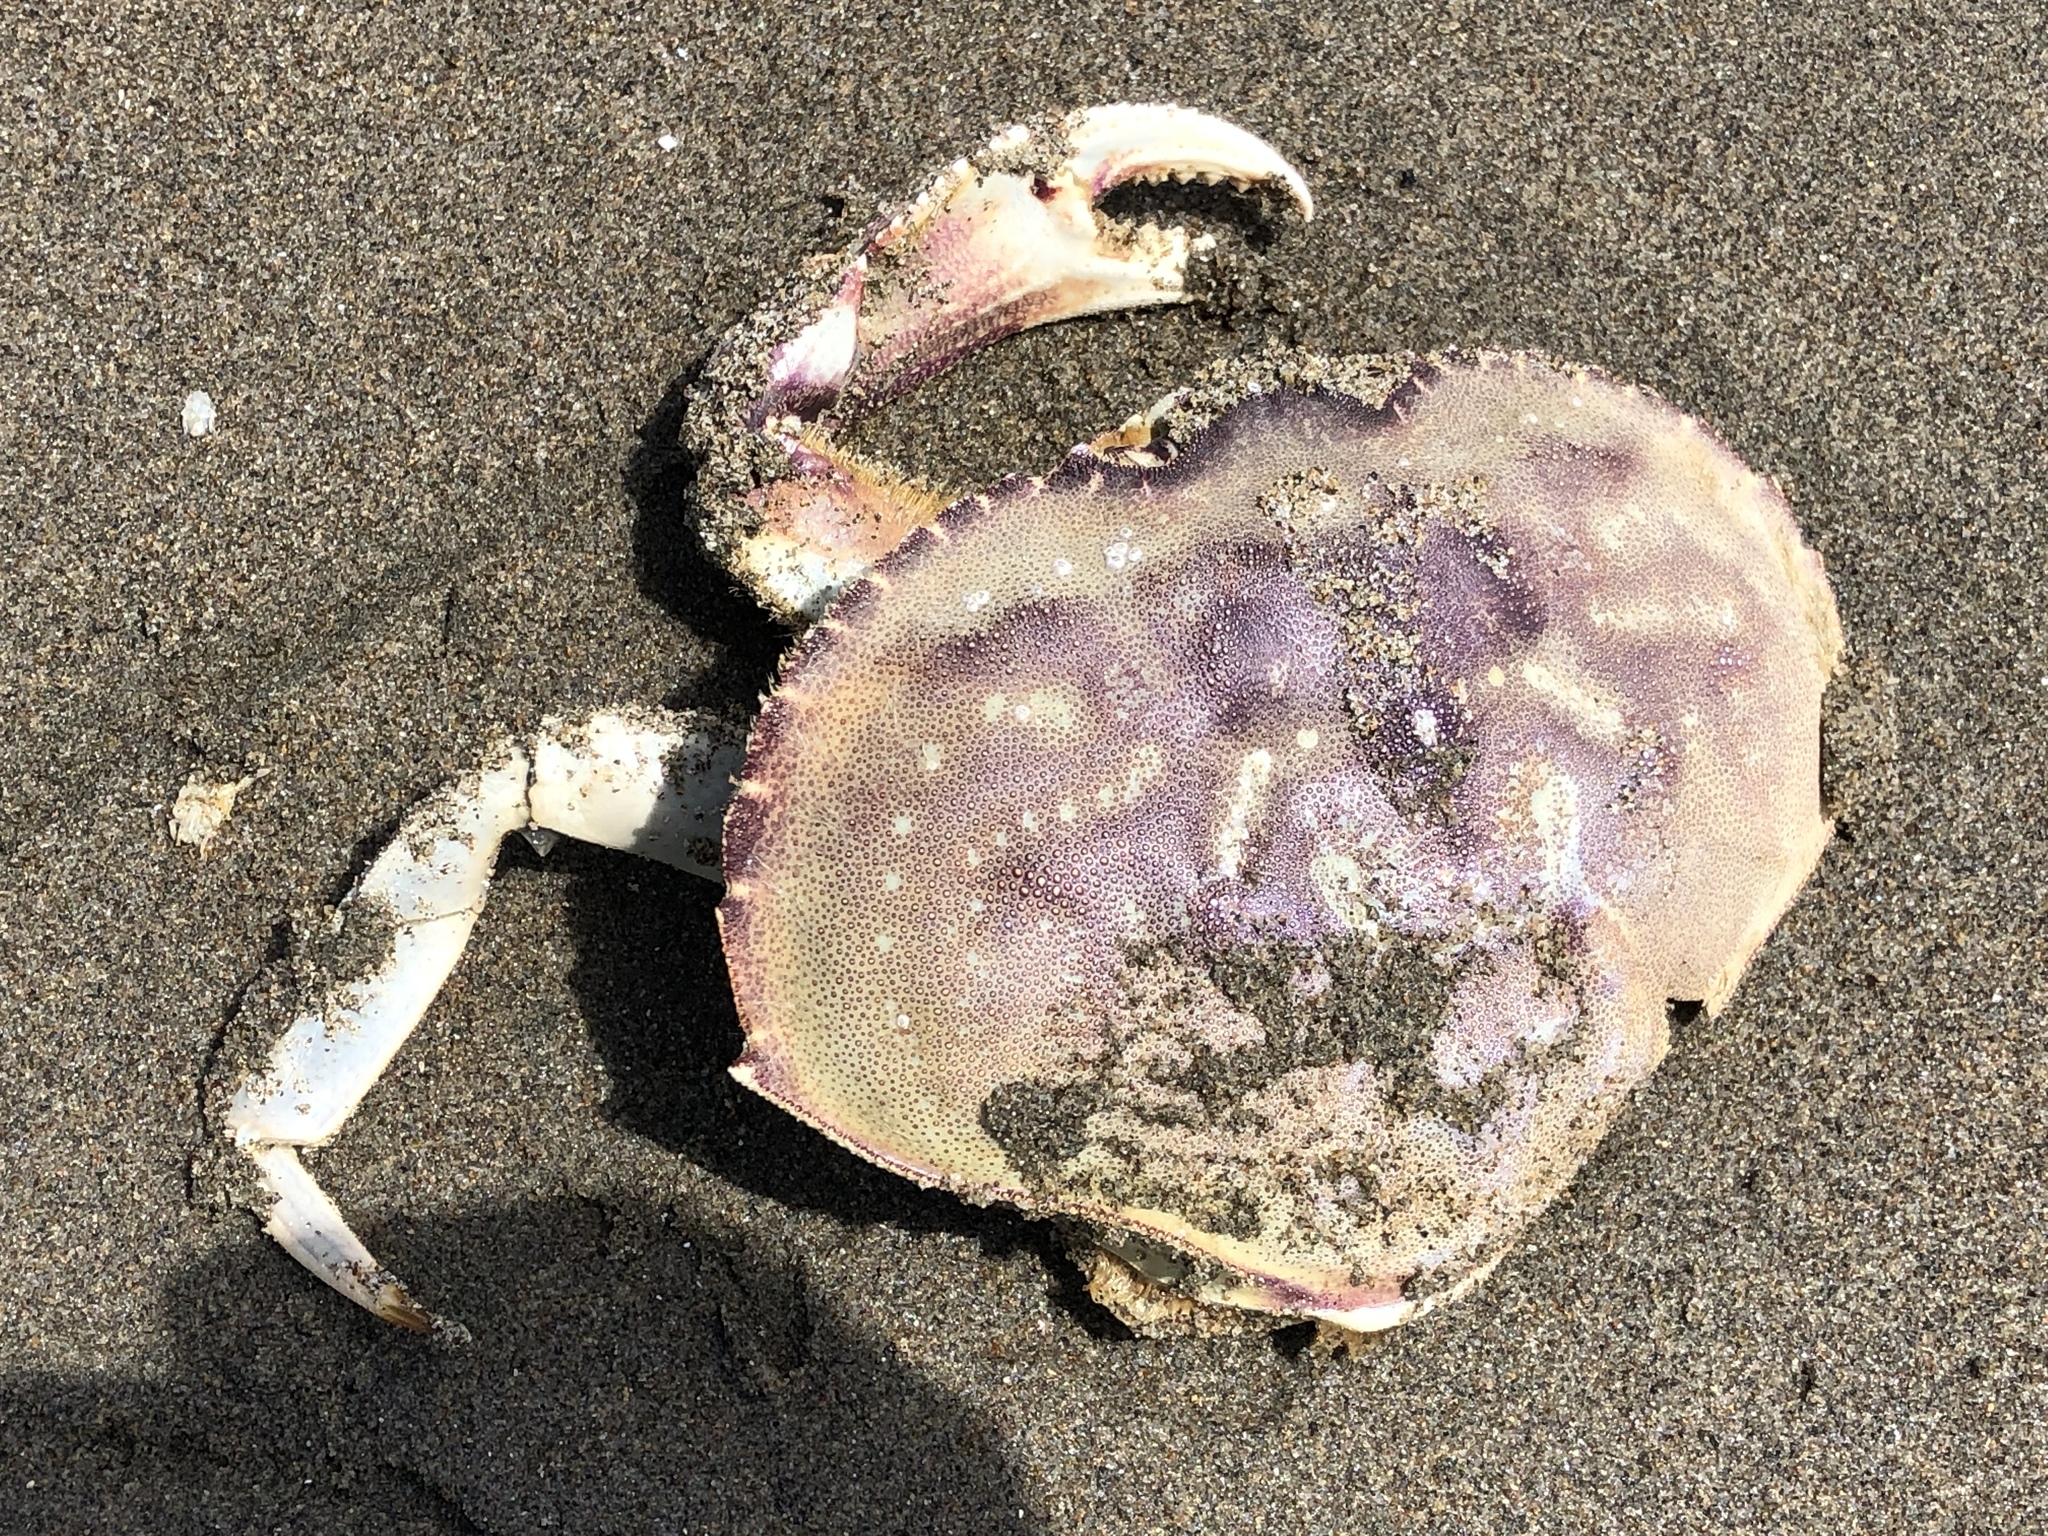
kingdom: Animalia
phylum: Arthropoda
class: Malacostraca
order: Decapoda
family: Cancridae
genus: Metacarcinus
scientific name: Metacarcinus magister
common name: Californian crab
